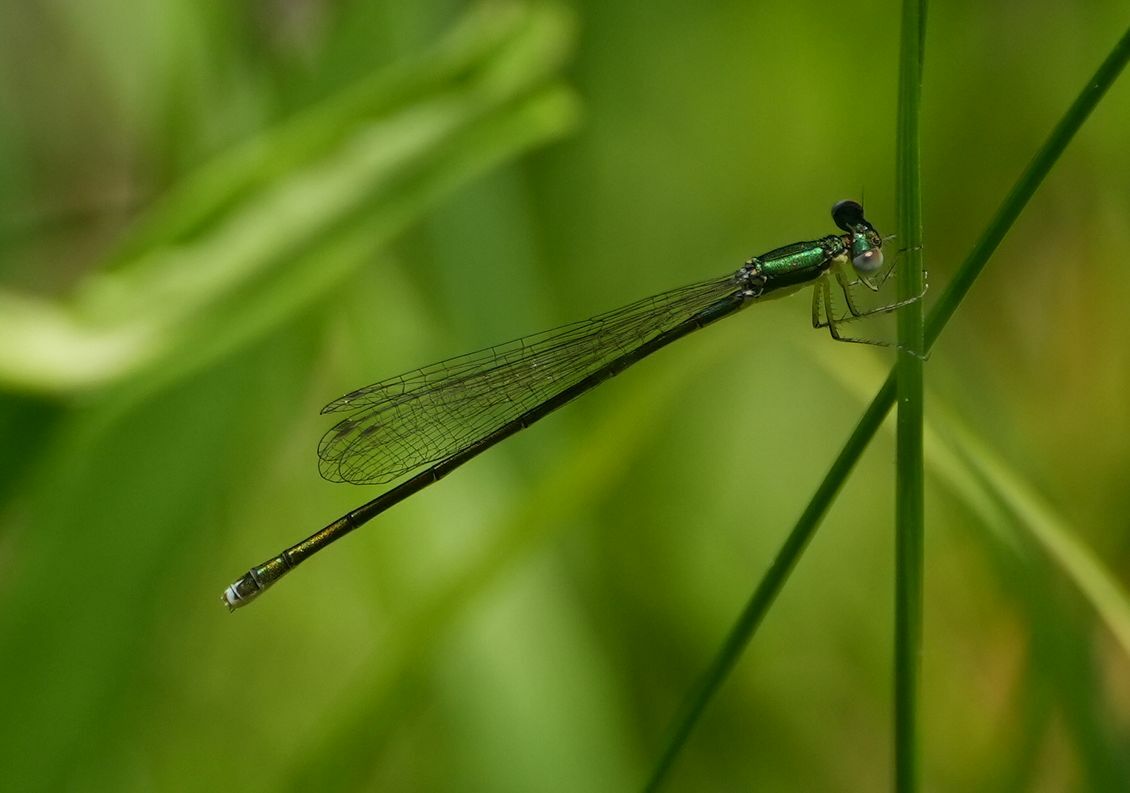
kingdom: Animalia
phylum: Arthropoda
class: Insecta
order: Odonata
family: Coenagrionidae
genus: Nehalennia
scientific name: Nehalennia irene
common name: Sedge sprite
